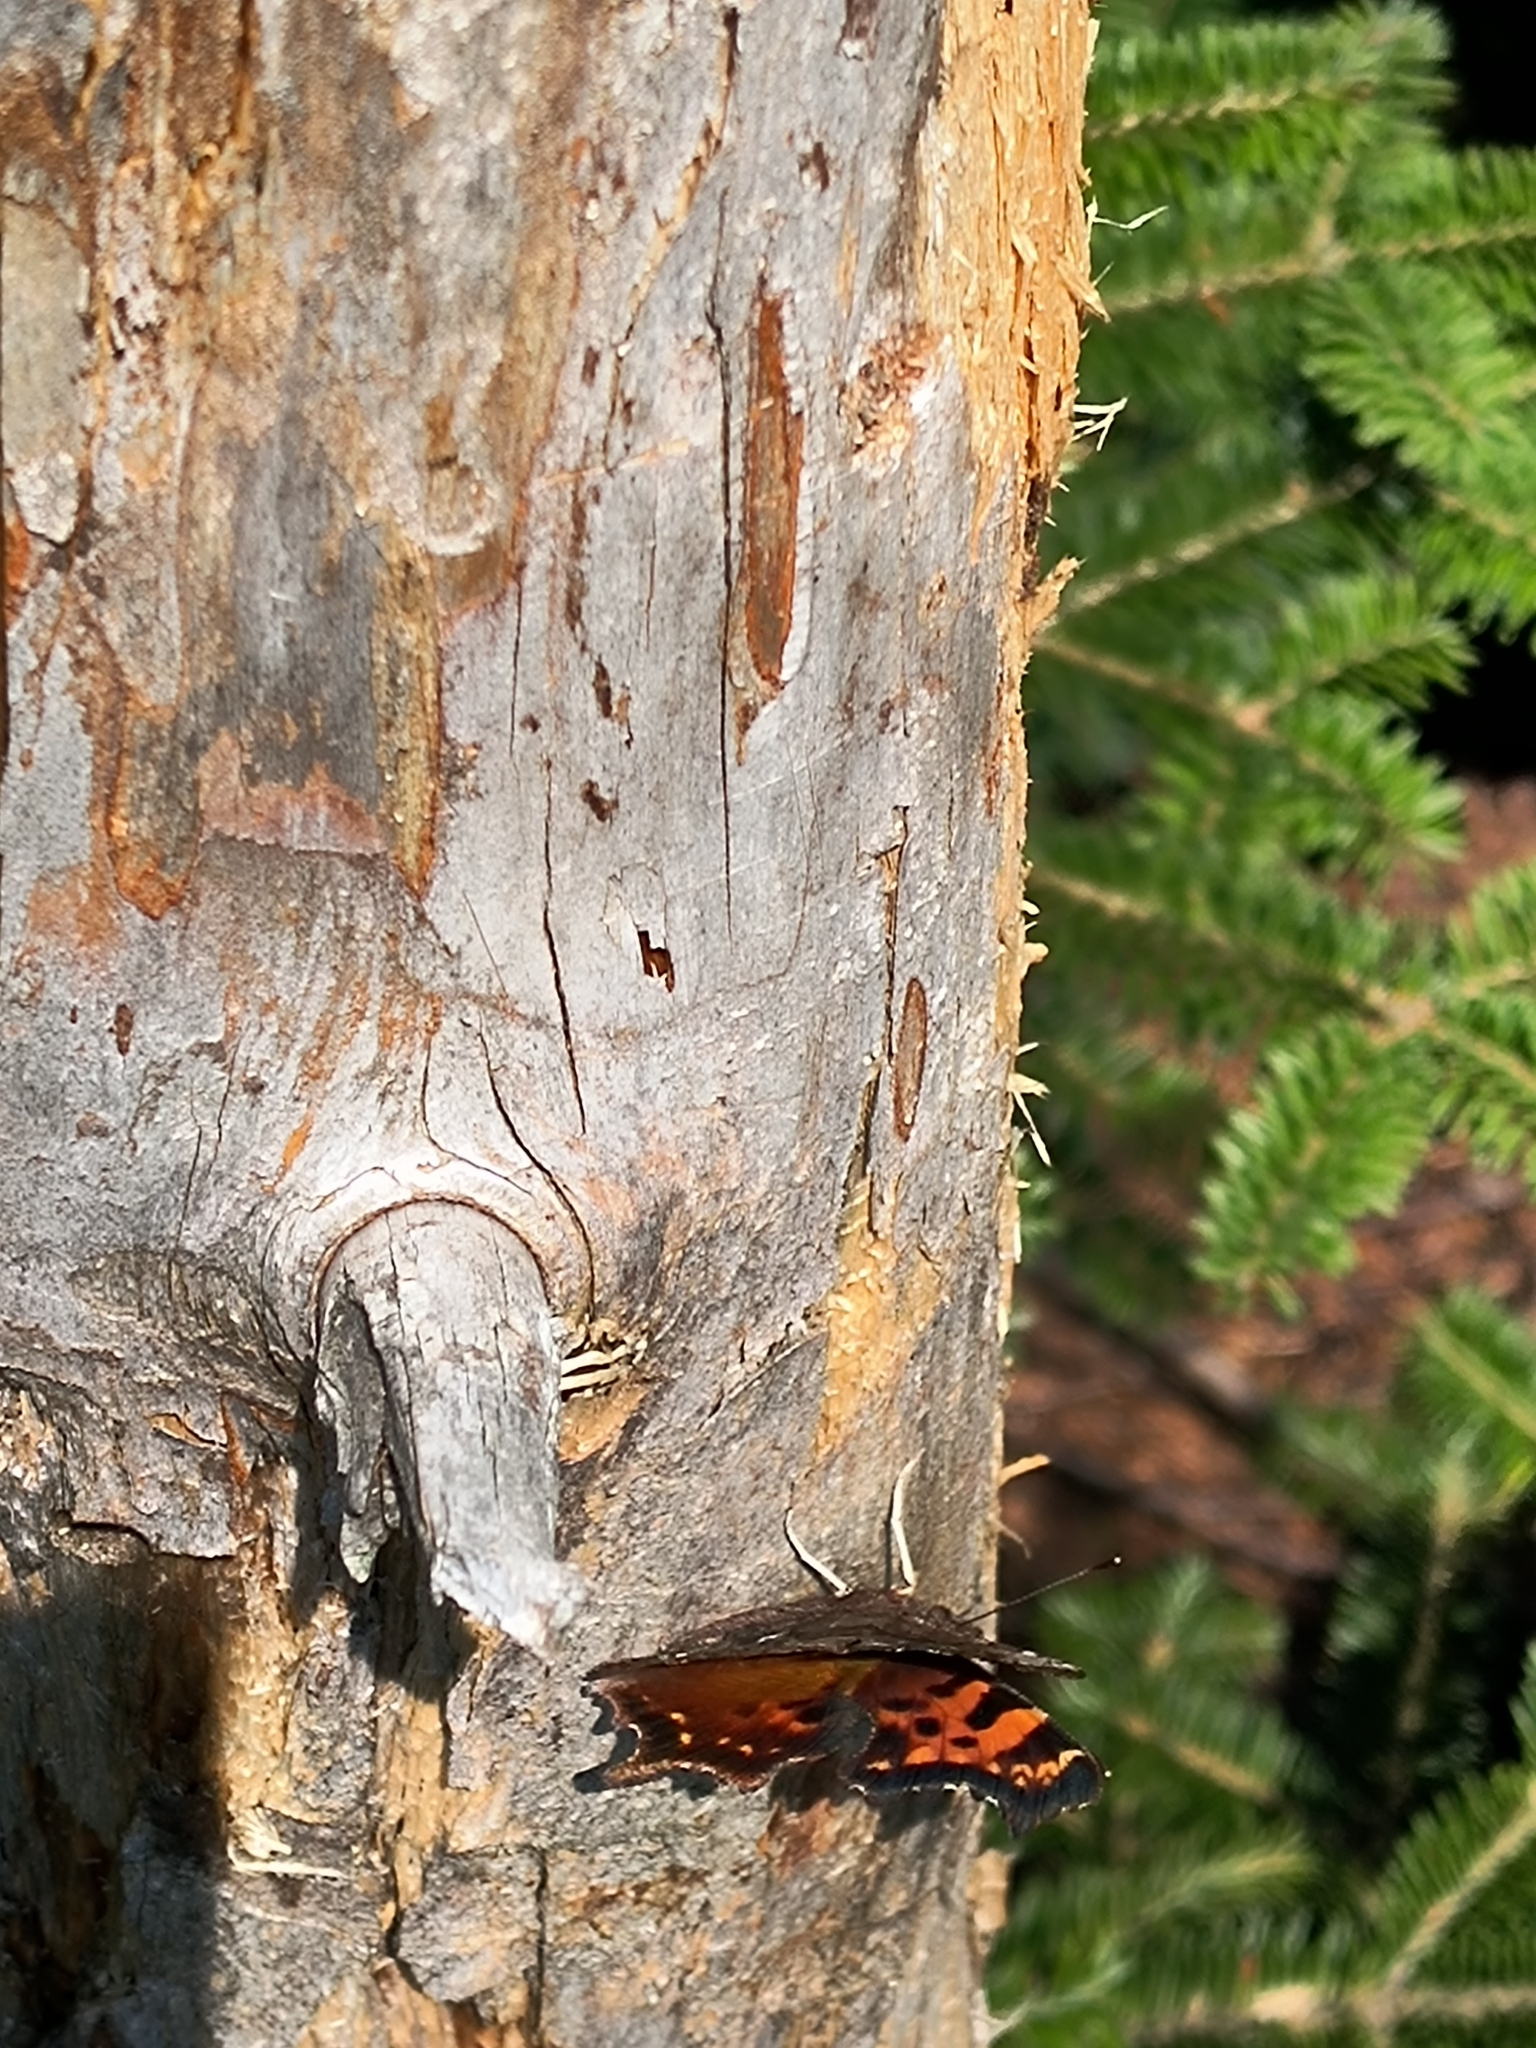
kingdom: Animalia
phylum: Arthropoda
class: Insecta
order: Lepidoptera
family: Nymphalidae
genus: Polygonia
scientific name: Polygonia faunus
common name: Green comma
